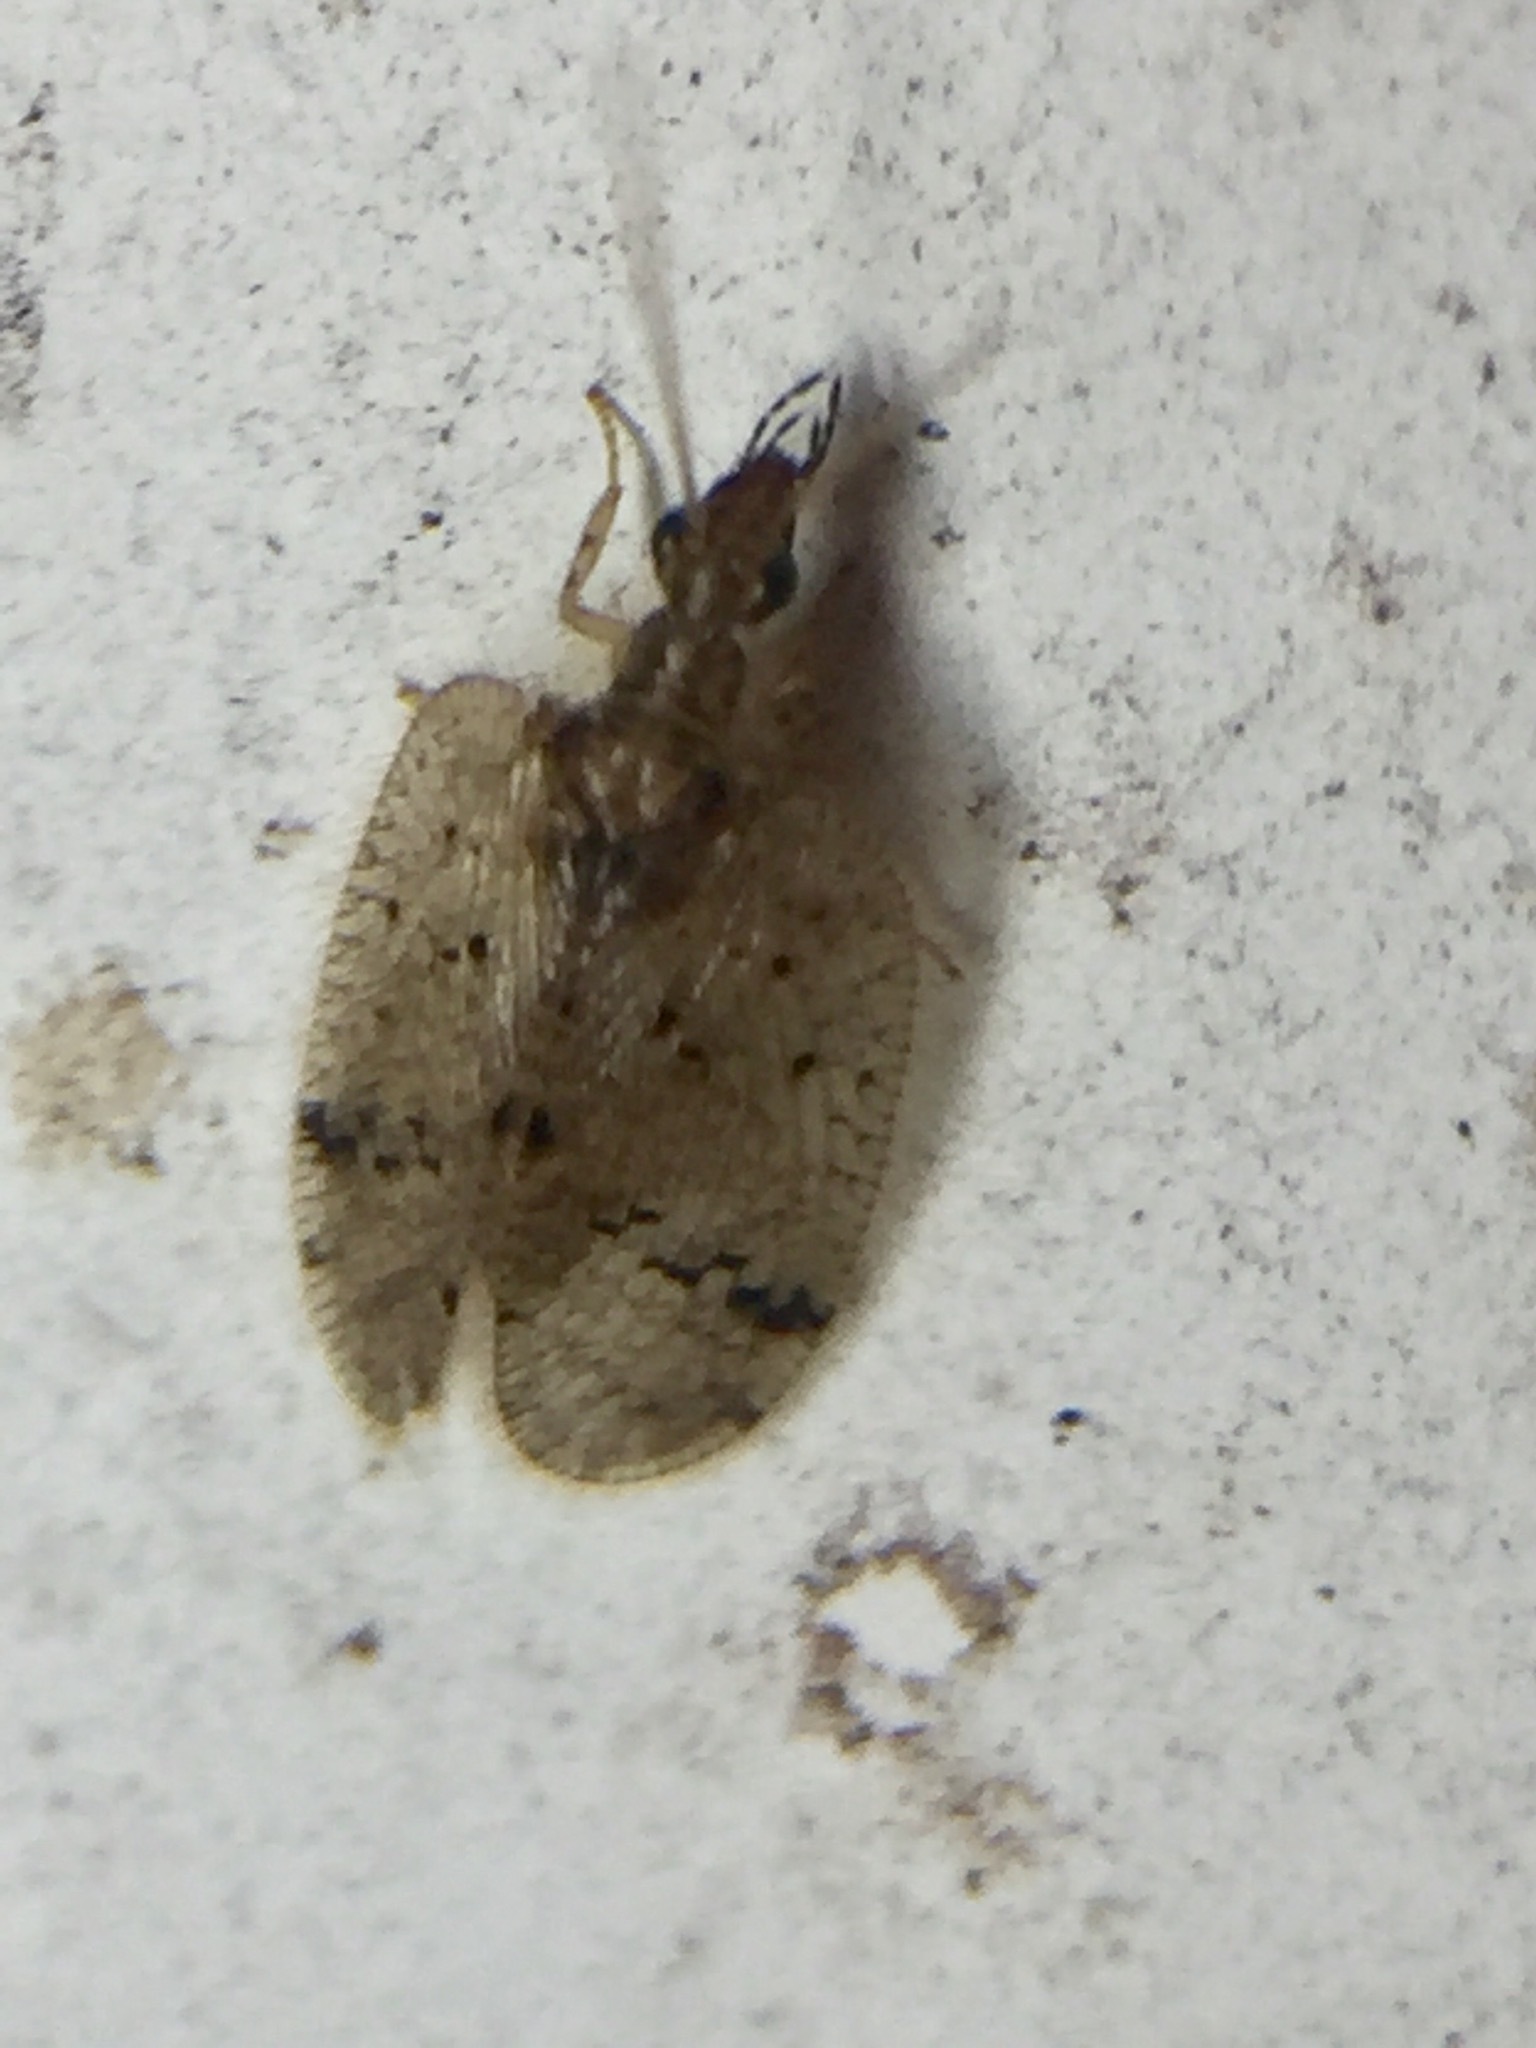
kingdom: Animalia
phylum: Arthropoda
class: Insecta
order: Neuroptera
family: Hemerobiidae
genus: Psectra
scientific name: Psectra nakaharai
